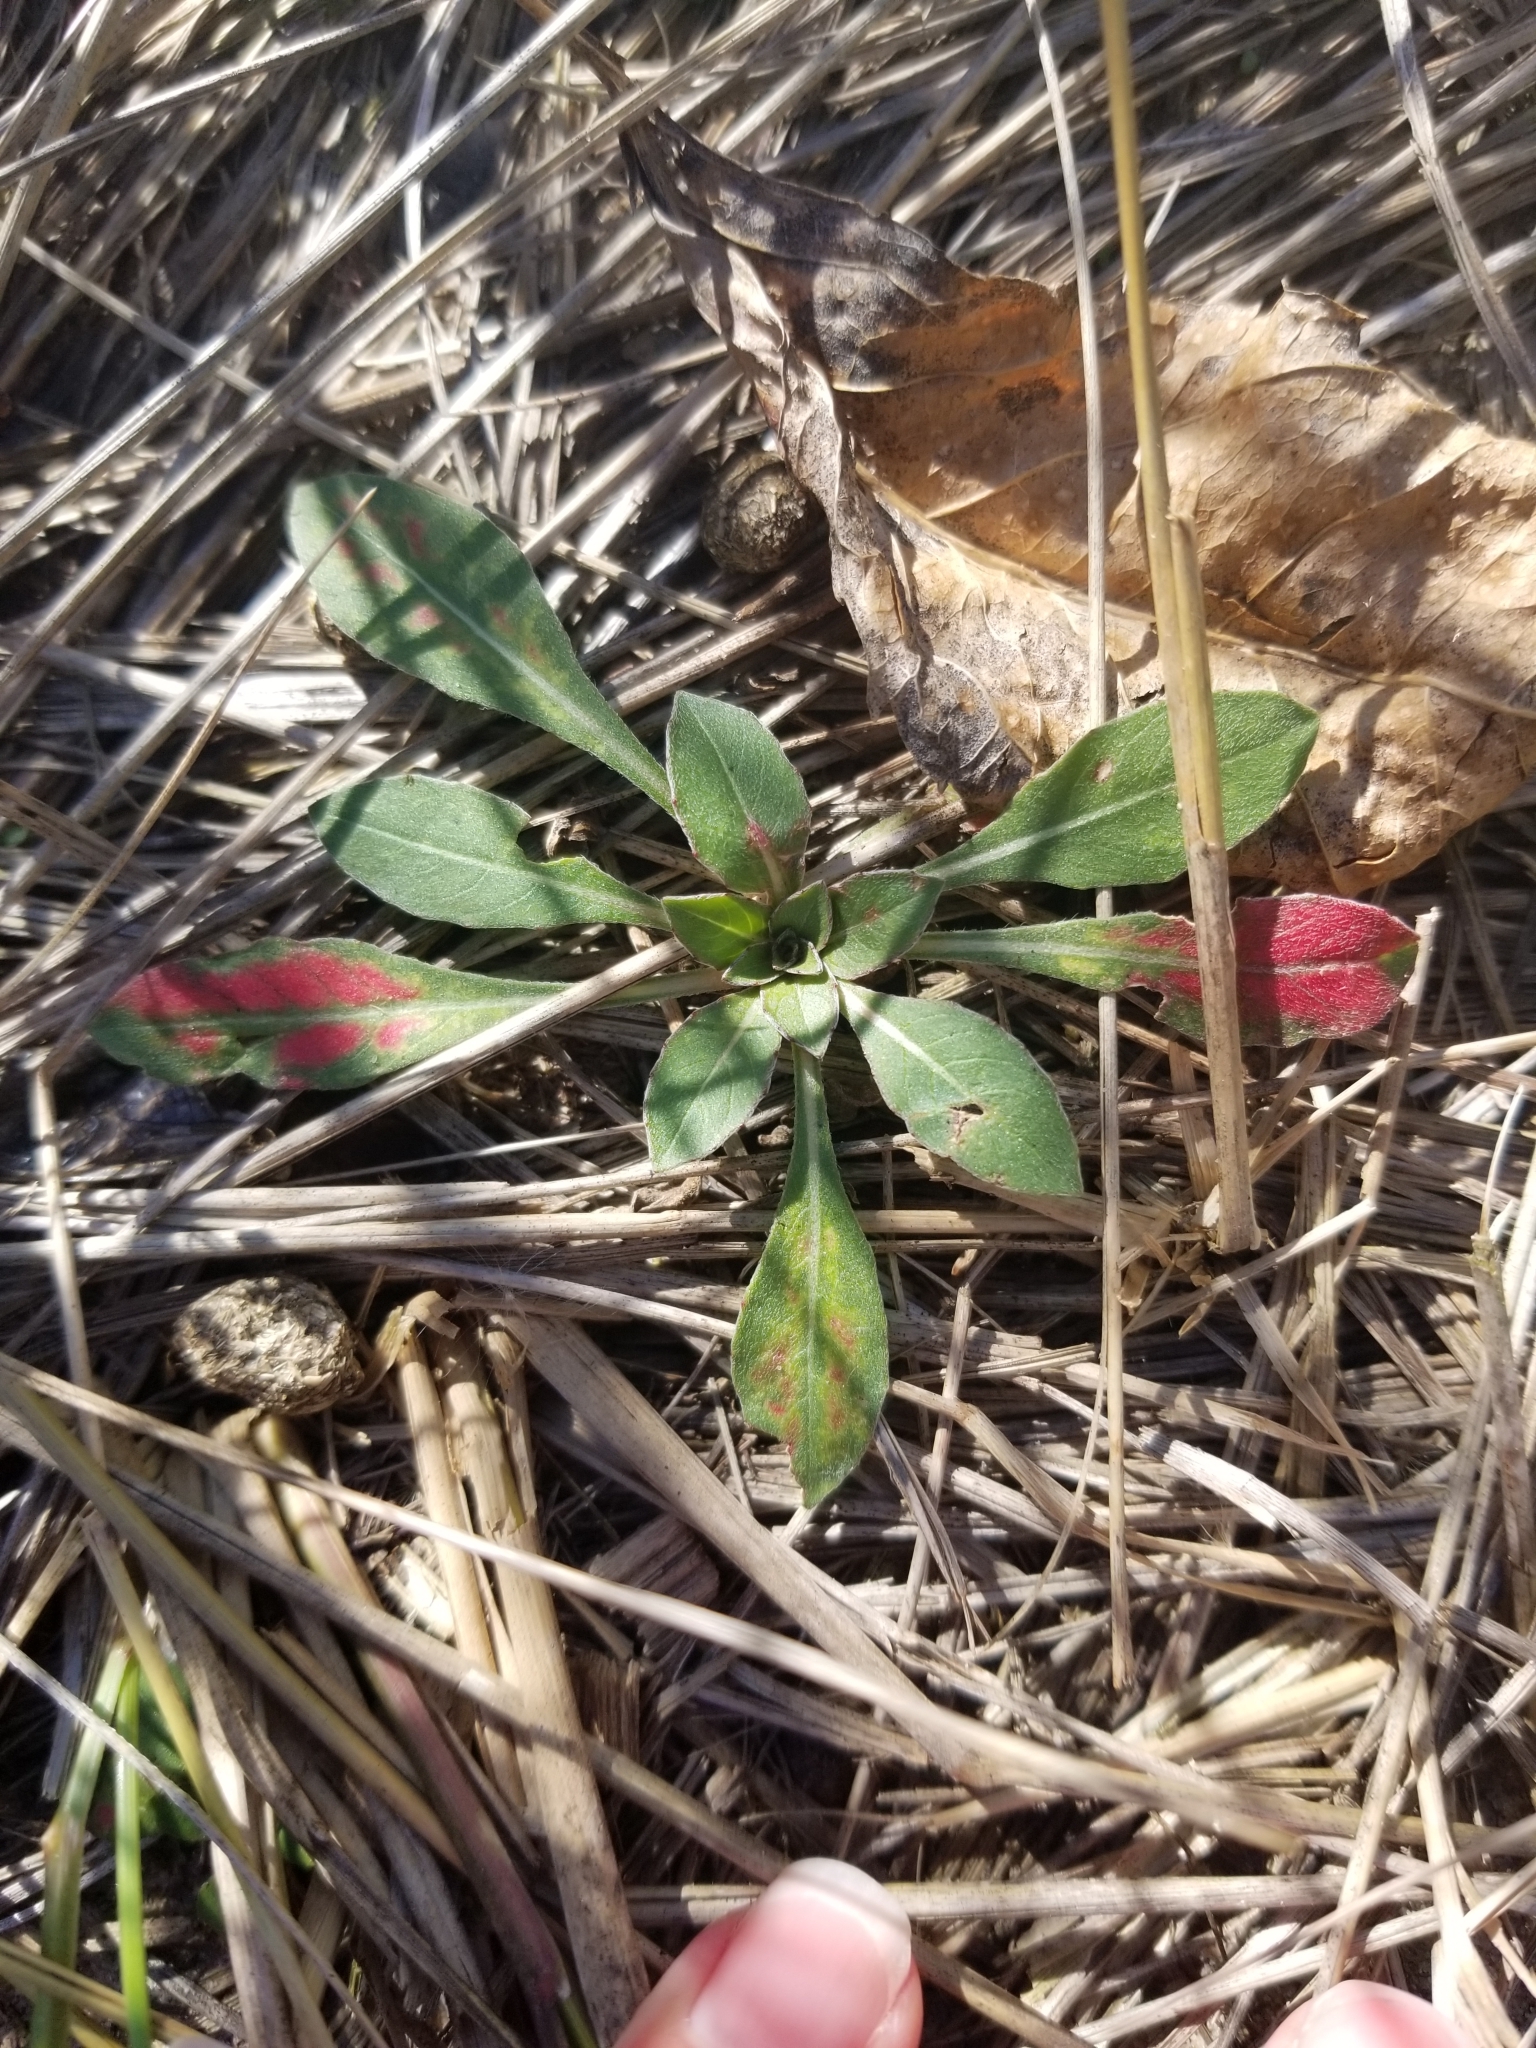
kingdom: Plantae
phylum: Tracheophyta
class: Magnoliopsida
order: Myrtales
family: Onagraceae
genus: Oenothera
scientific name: Oenothera biennis
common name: Common evening-primrose
